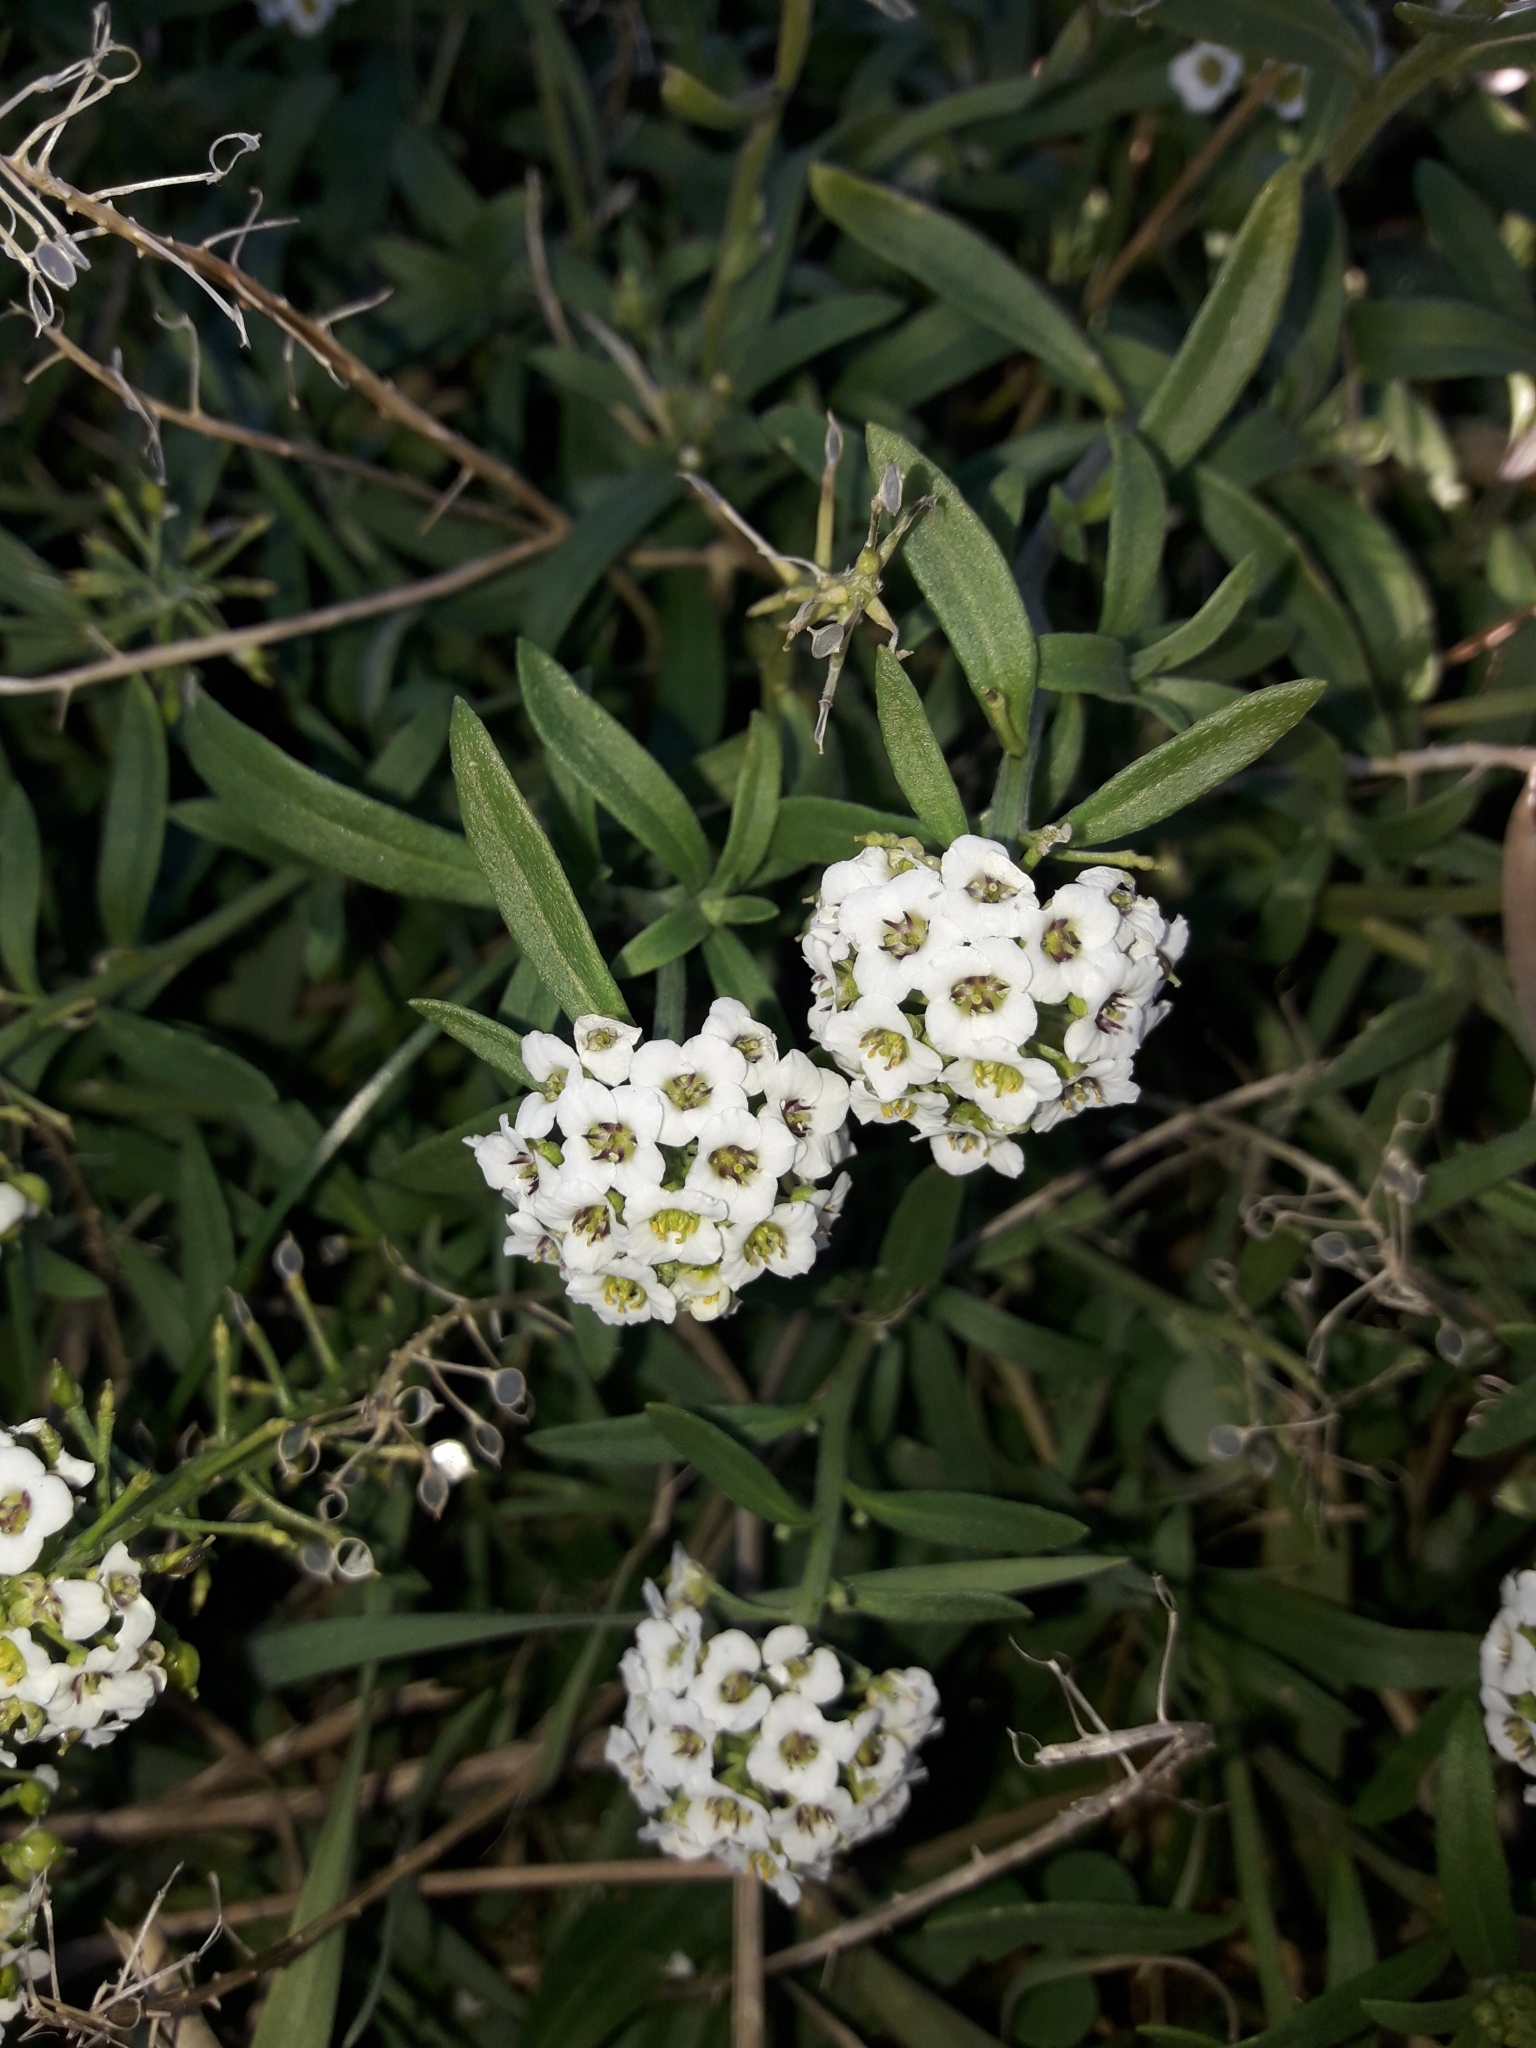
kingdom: Plantae
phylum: Tracheophyta
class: Magnoliopsida
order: Brassicales
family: Brassicaceae
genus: Lobularia
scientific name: Lobularia maritima
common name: Sweet alison
